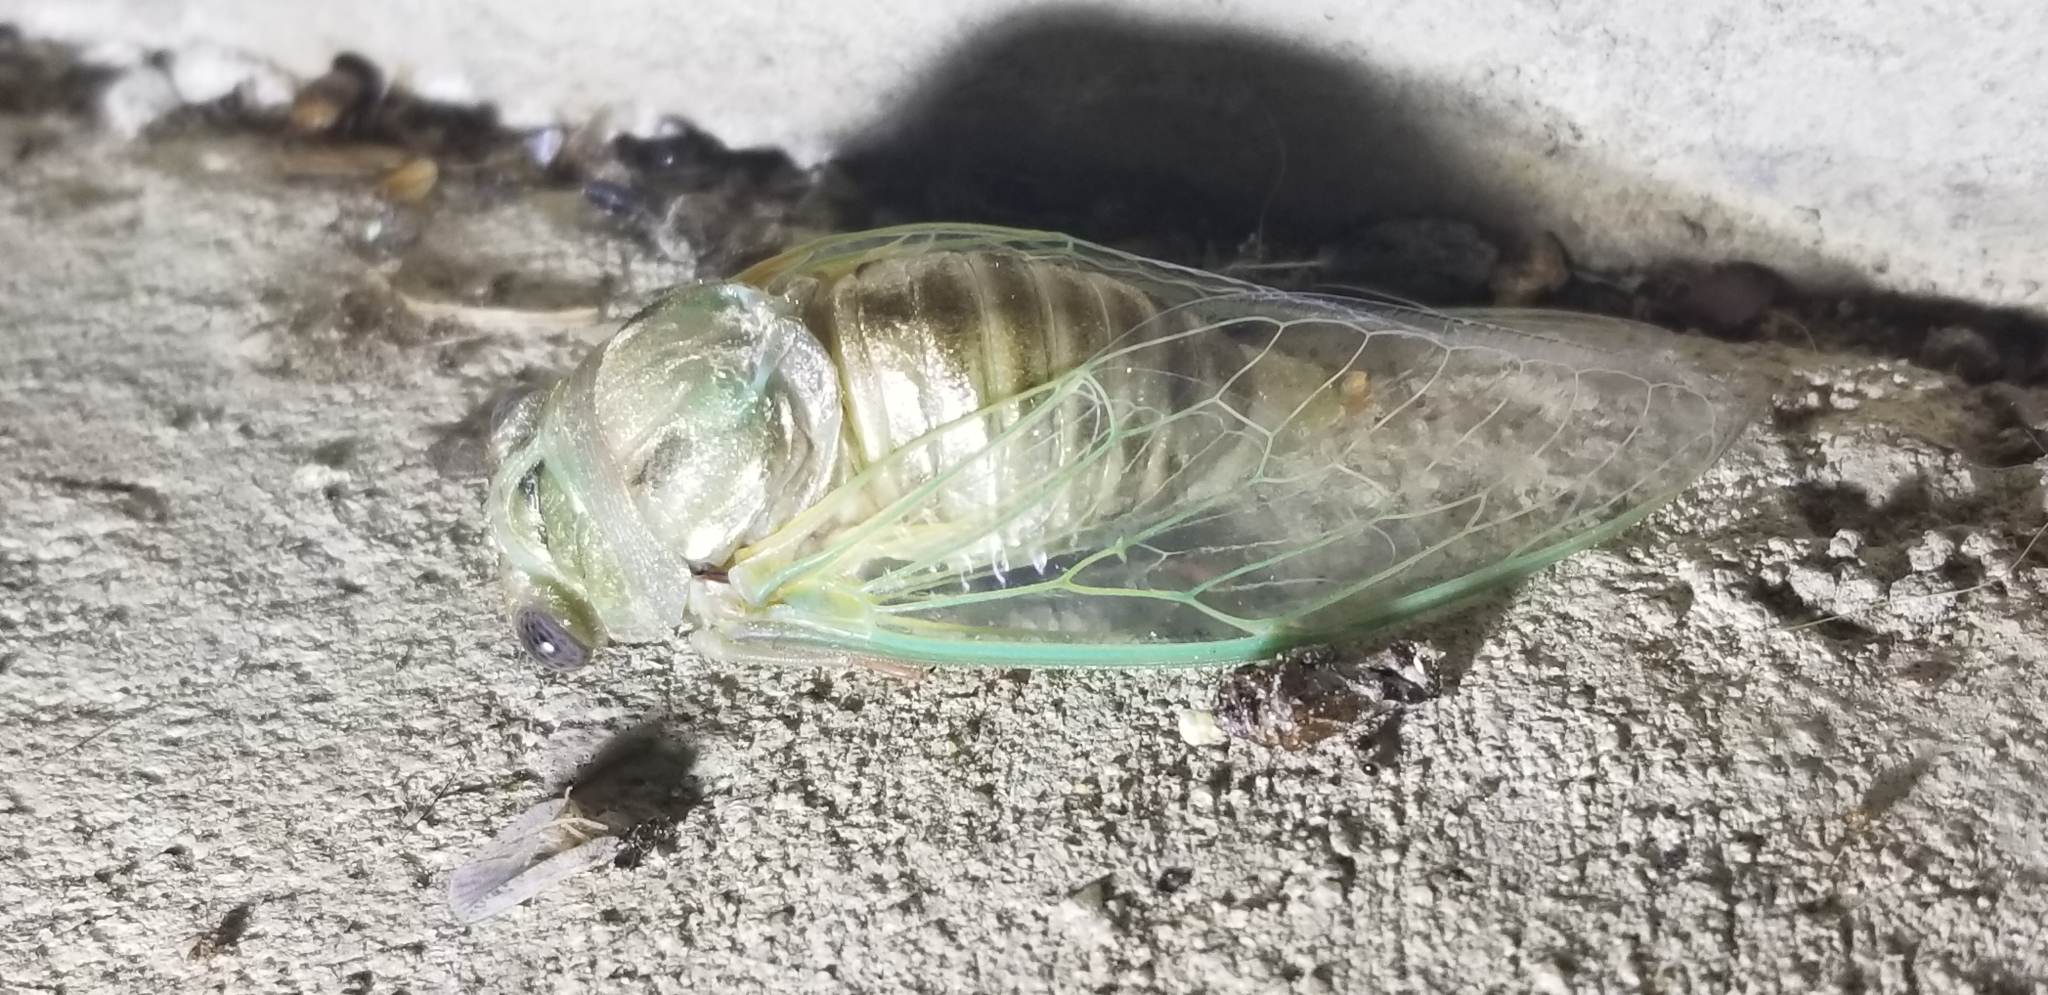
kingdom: Animalia
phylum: Arthropoda
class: Insecta
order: Hemiptera
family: Cicadidae
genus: Megatibicen
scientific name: Megatibicen resh
